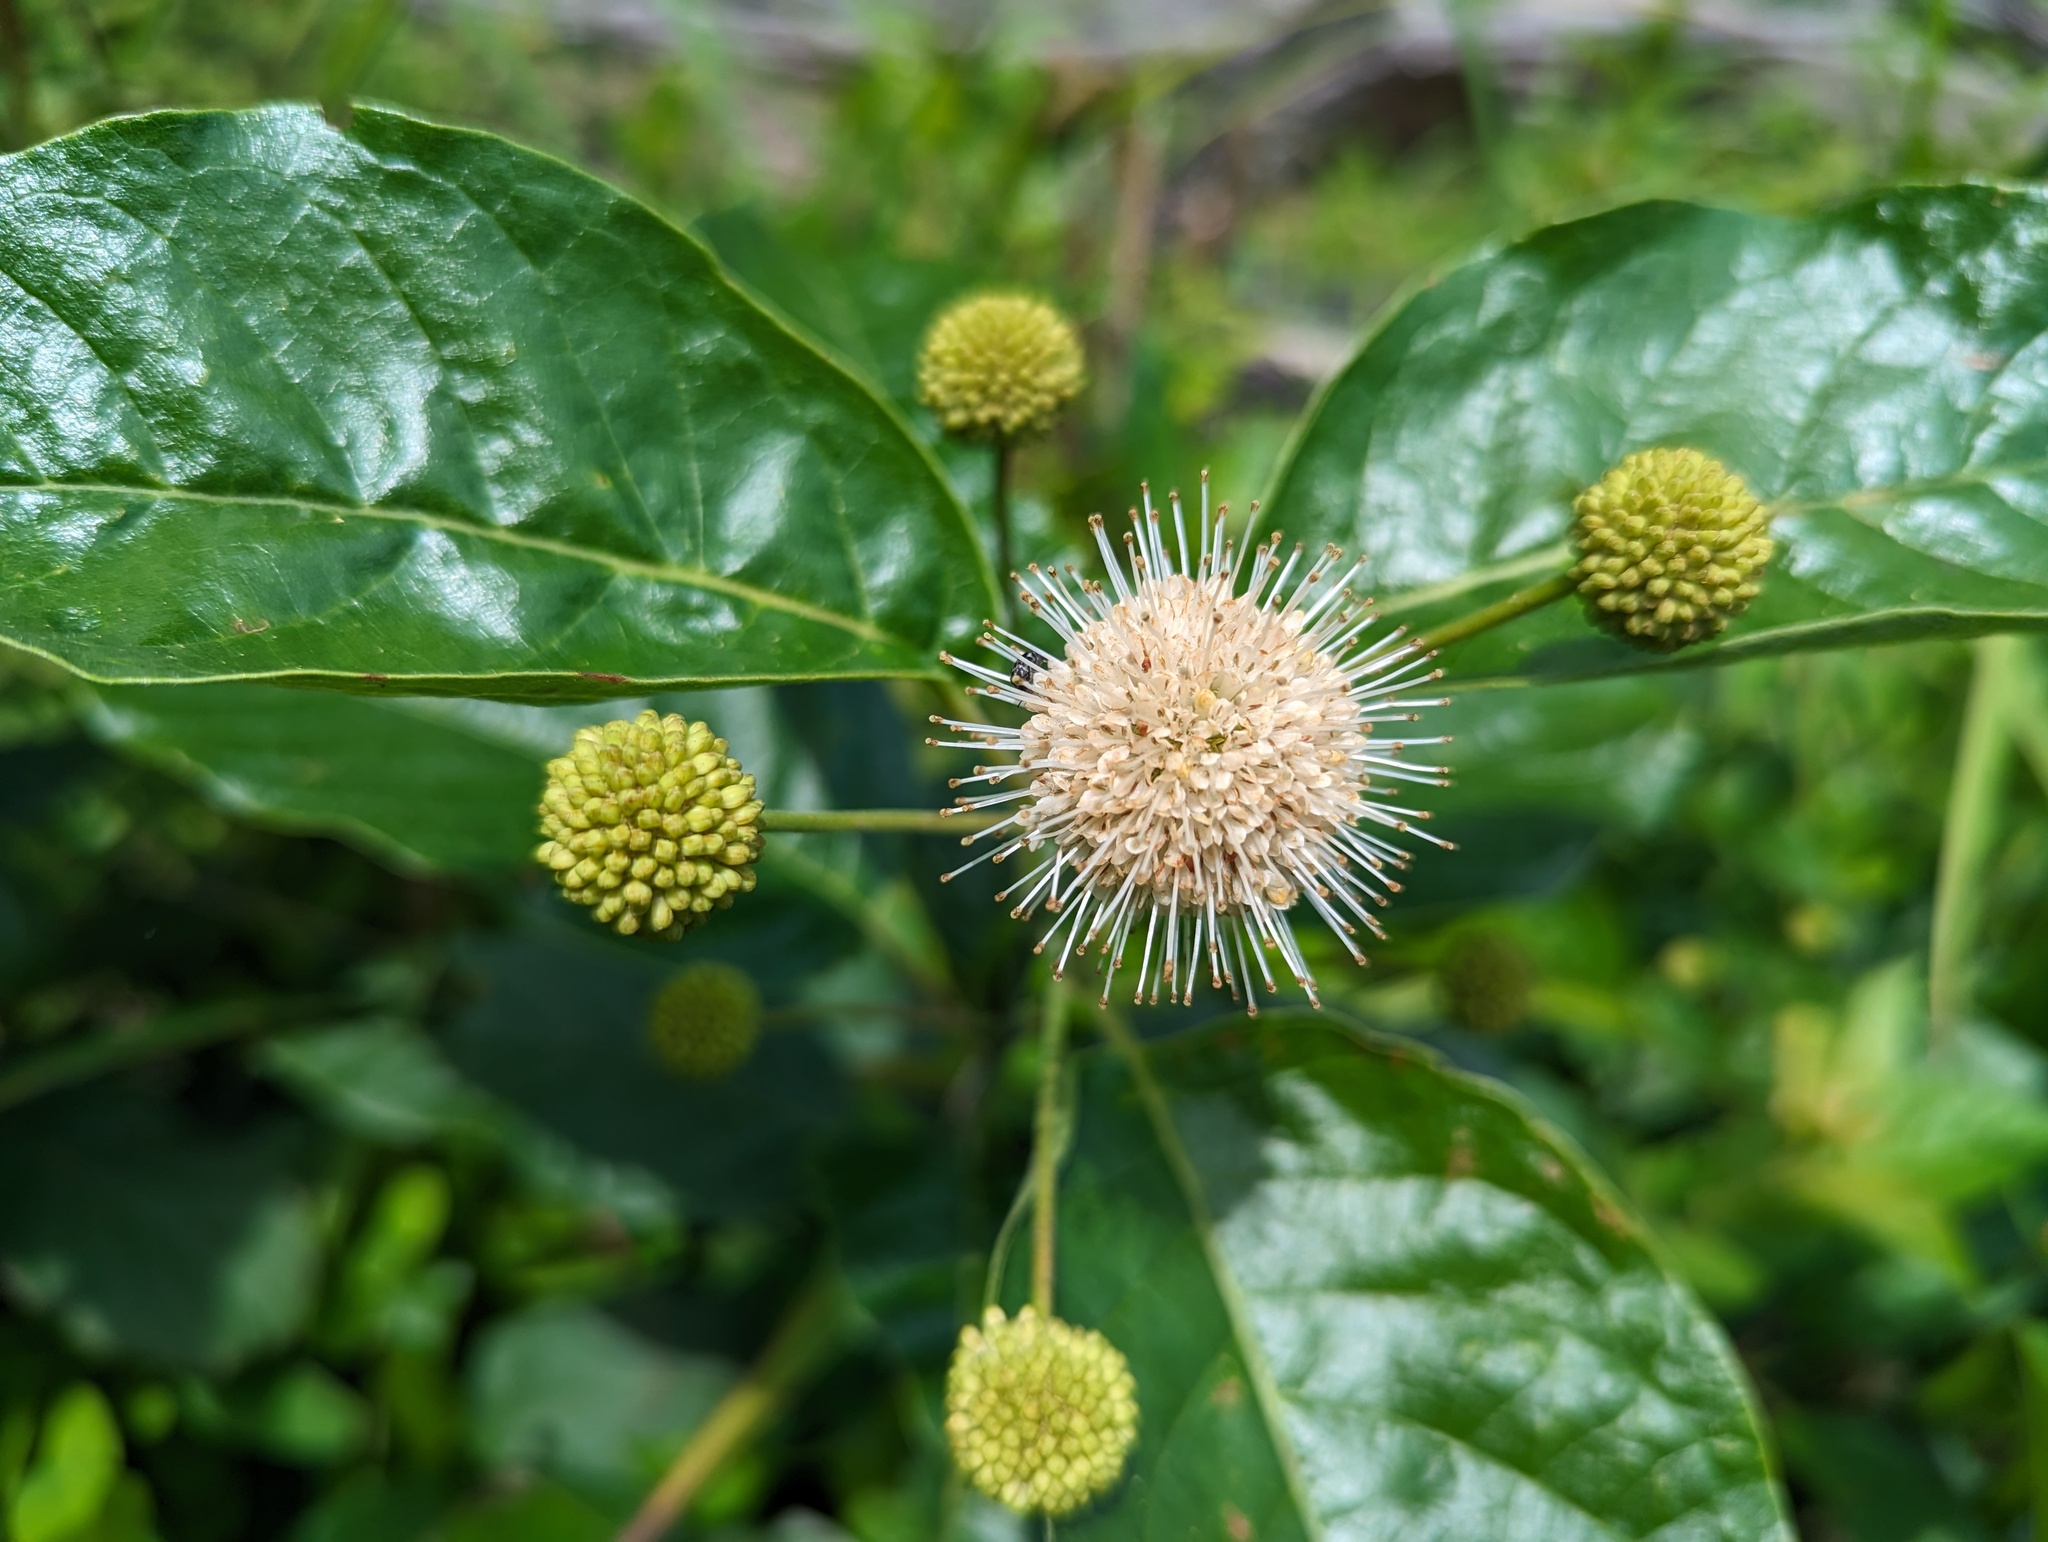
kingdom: Plantae
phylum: Tracheophyta
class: Magnoliopsida
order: Gentianales
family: Rubiaceae
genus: Cephalanthus
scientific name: Cephalanthus occidentalis
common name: Button-willow
